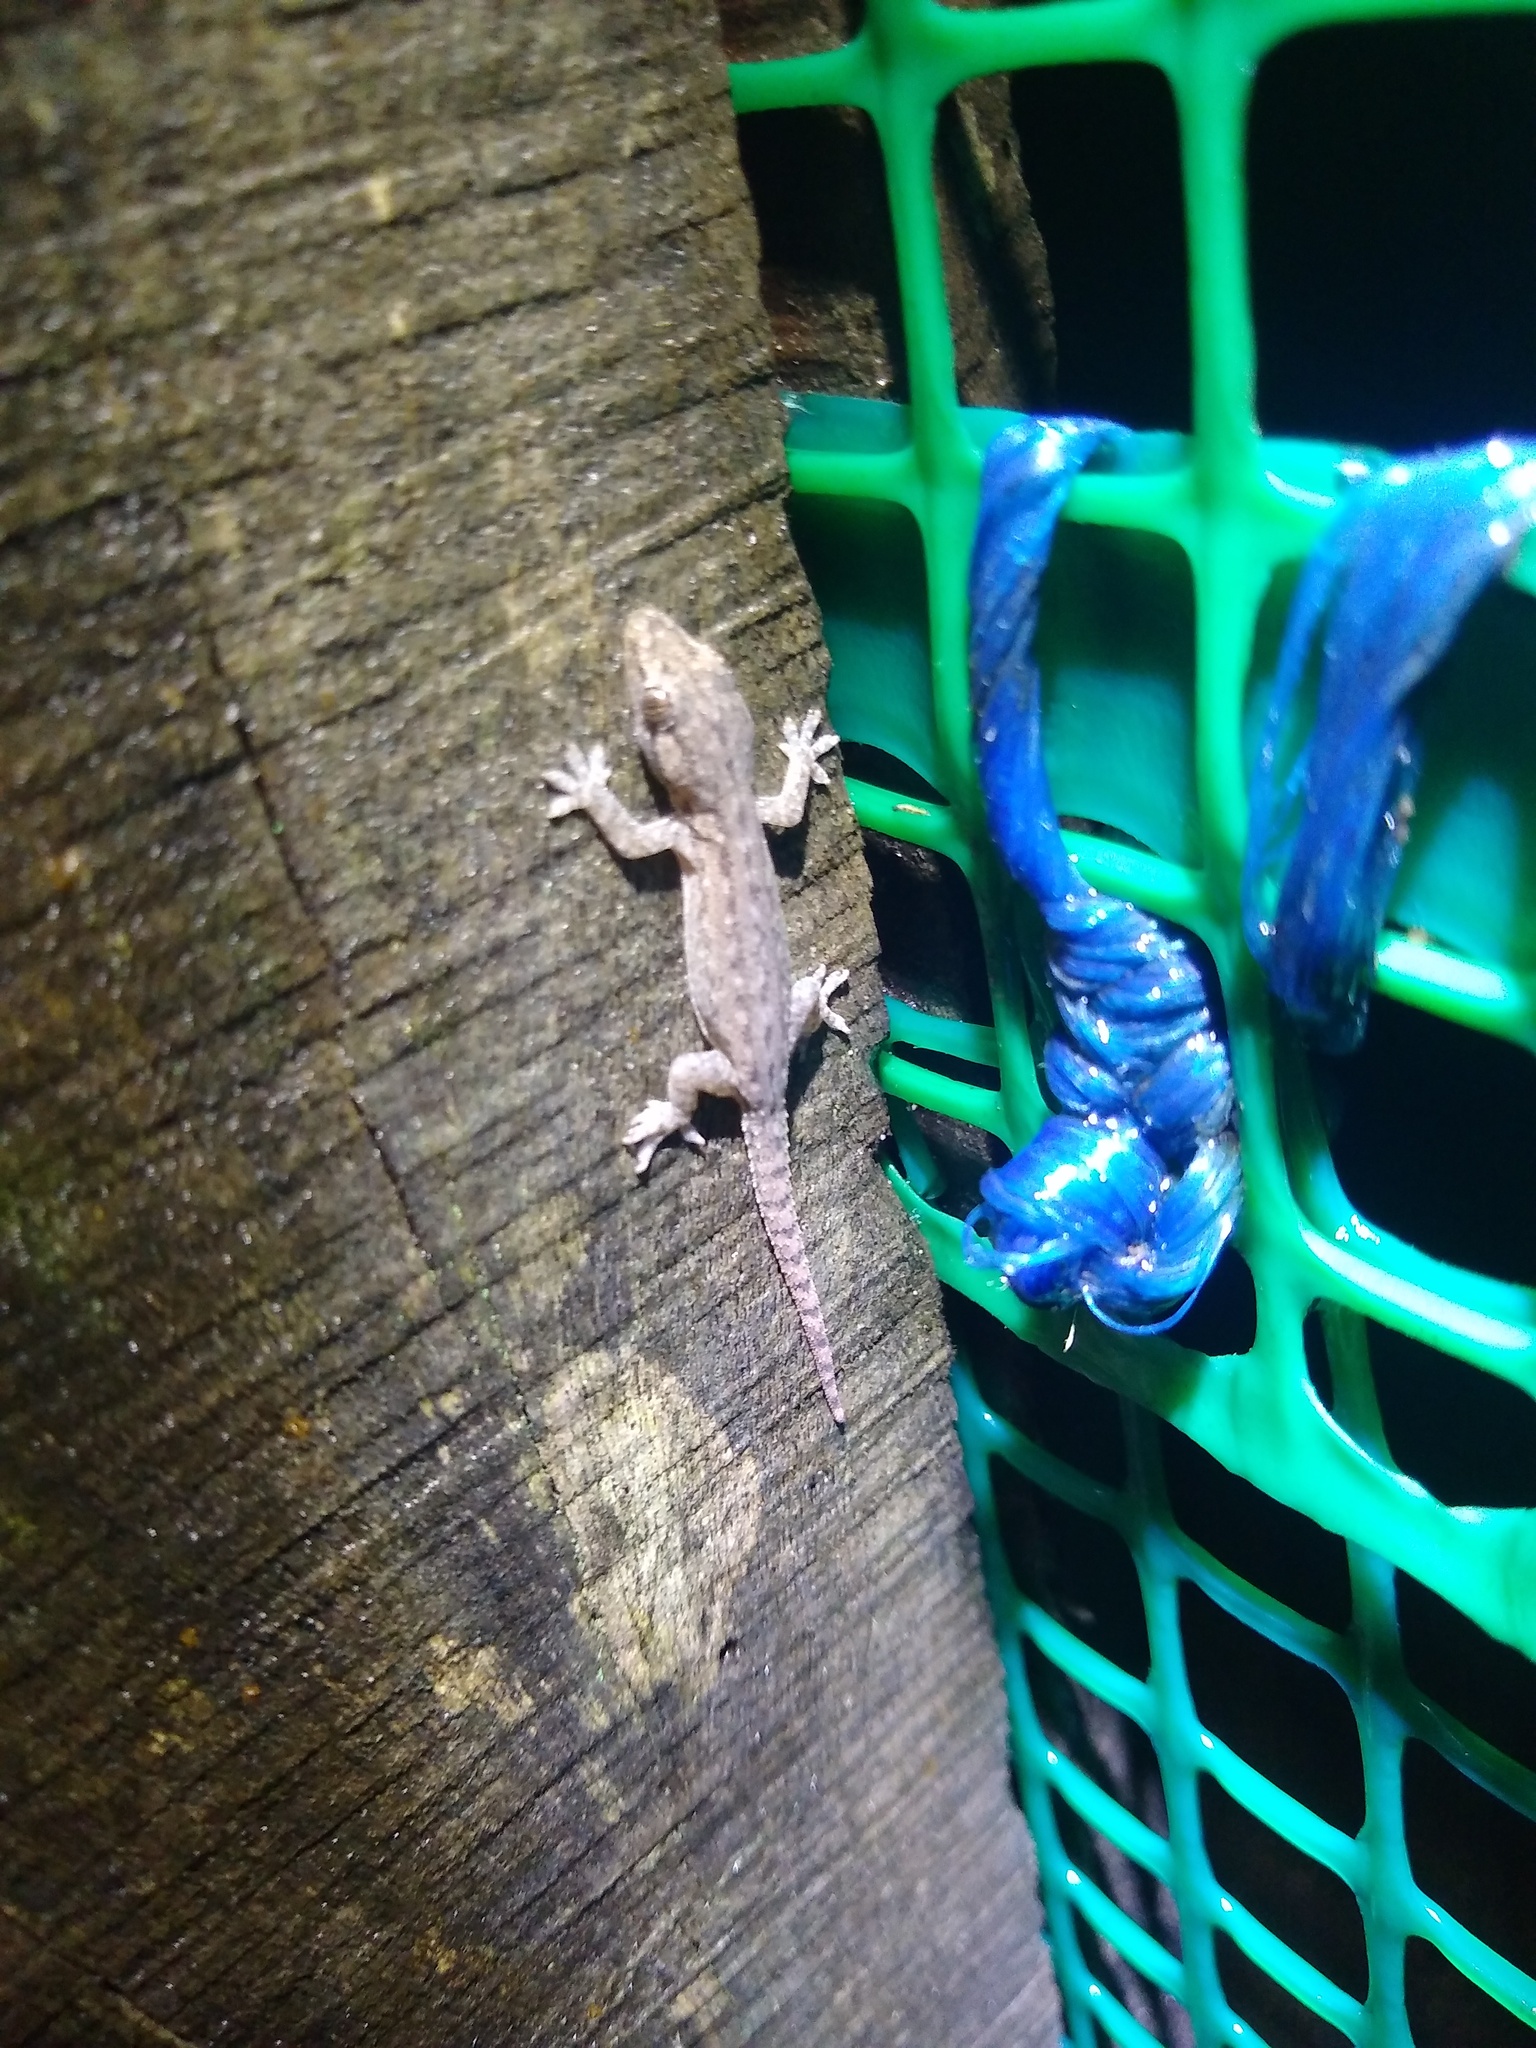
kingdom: Animalia
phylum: Chordata
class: Squamata
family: Gekkonidae
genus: Hemidactylus
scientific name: Hemidactylus frenatus
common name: Common house gecko
